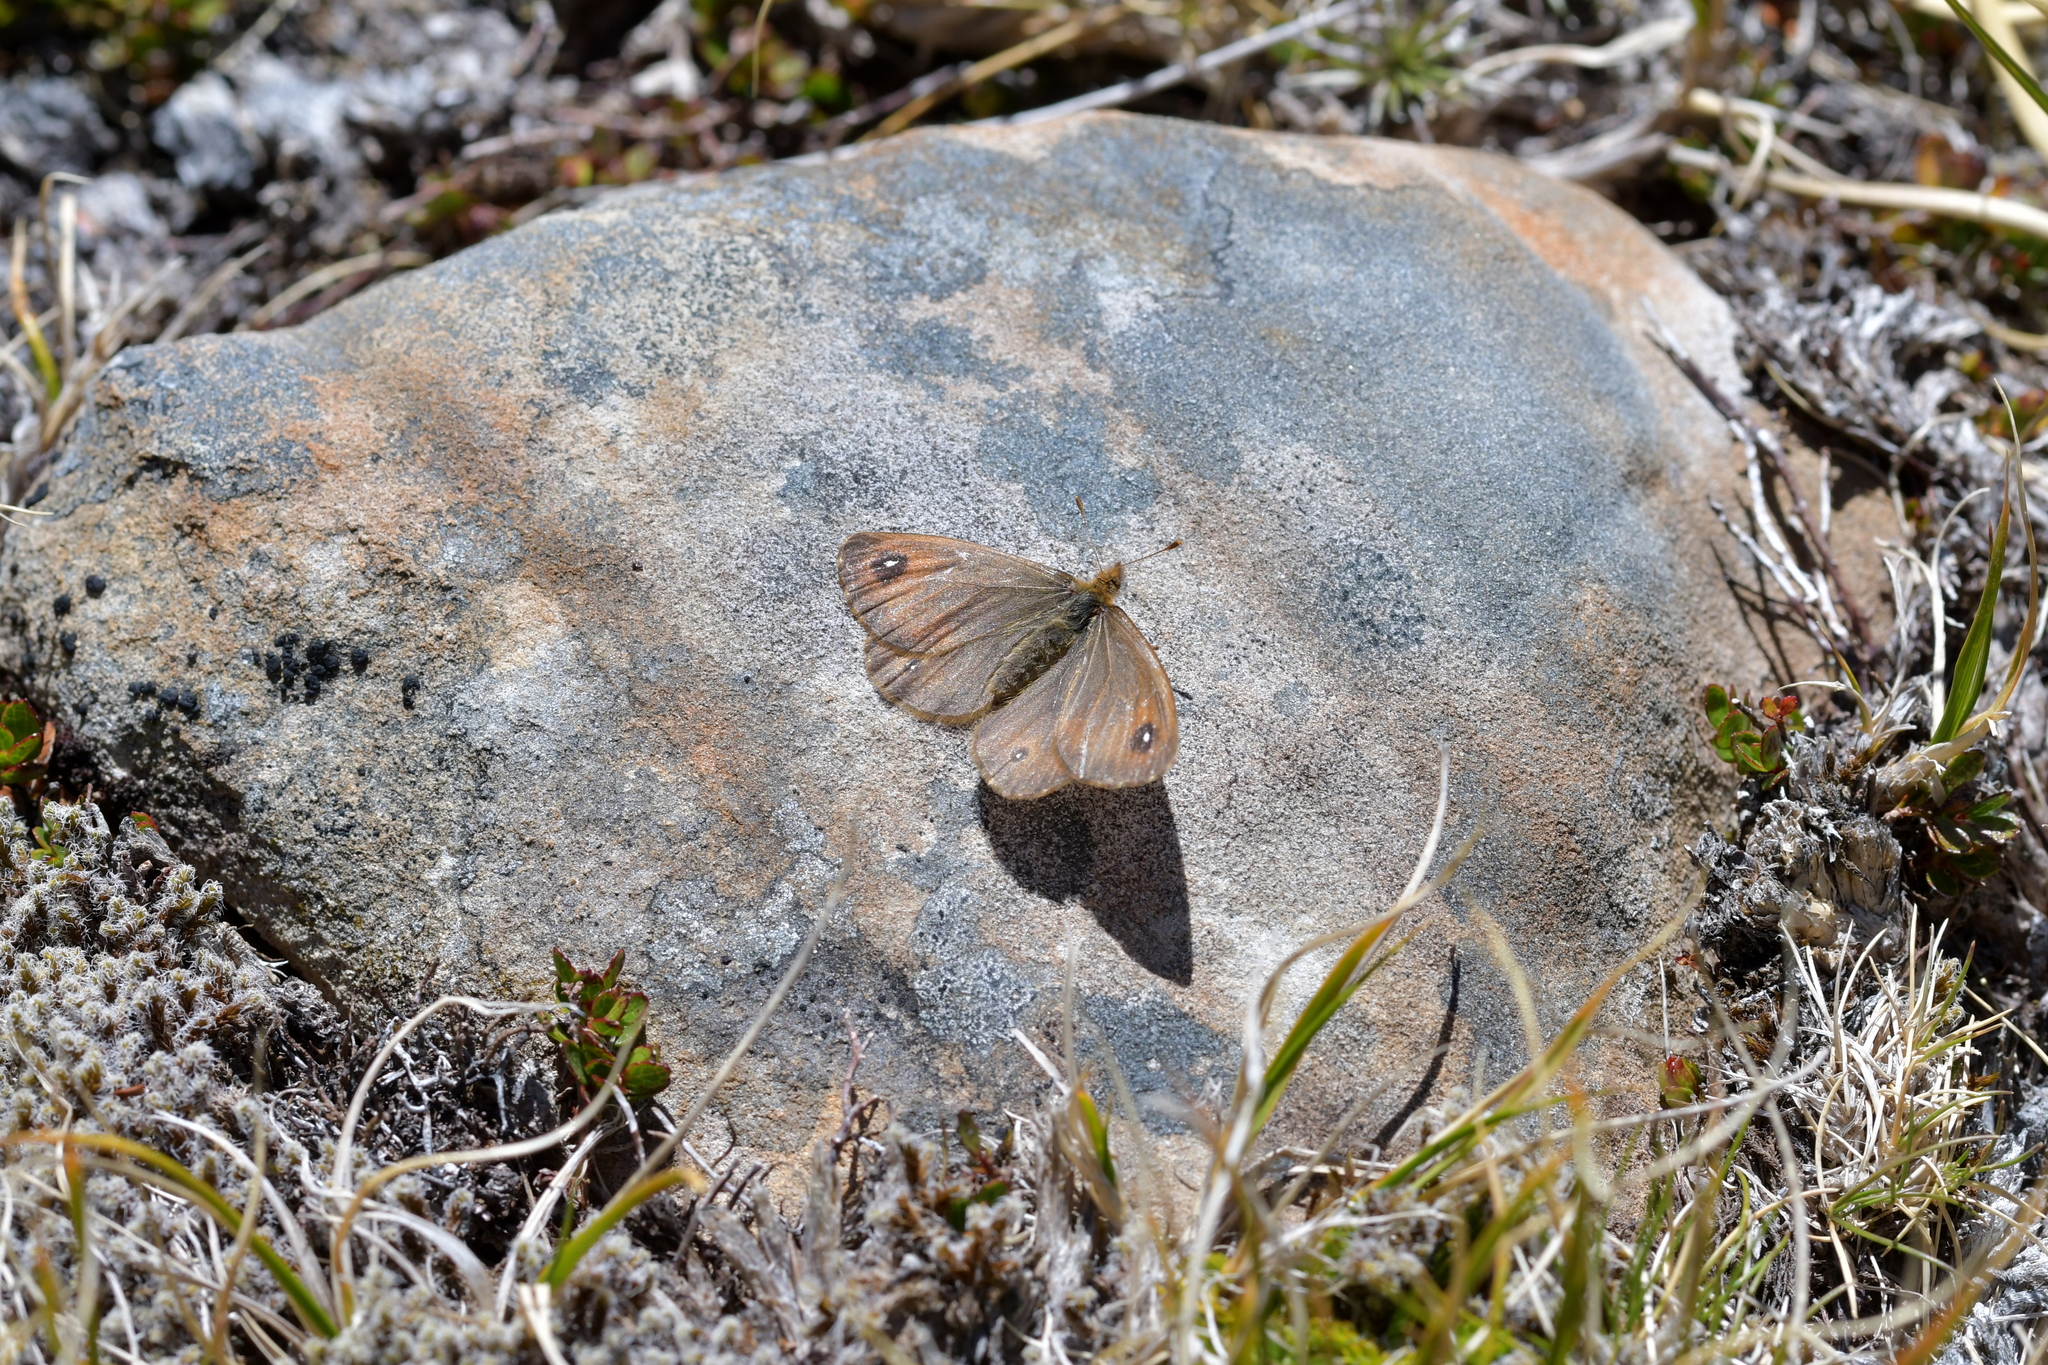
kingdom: Animalia
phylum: Arthropoda
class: Insecta
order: Lepidoptera
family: Nymphalidae
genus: Erebiola
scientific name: Erebiola butleri
